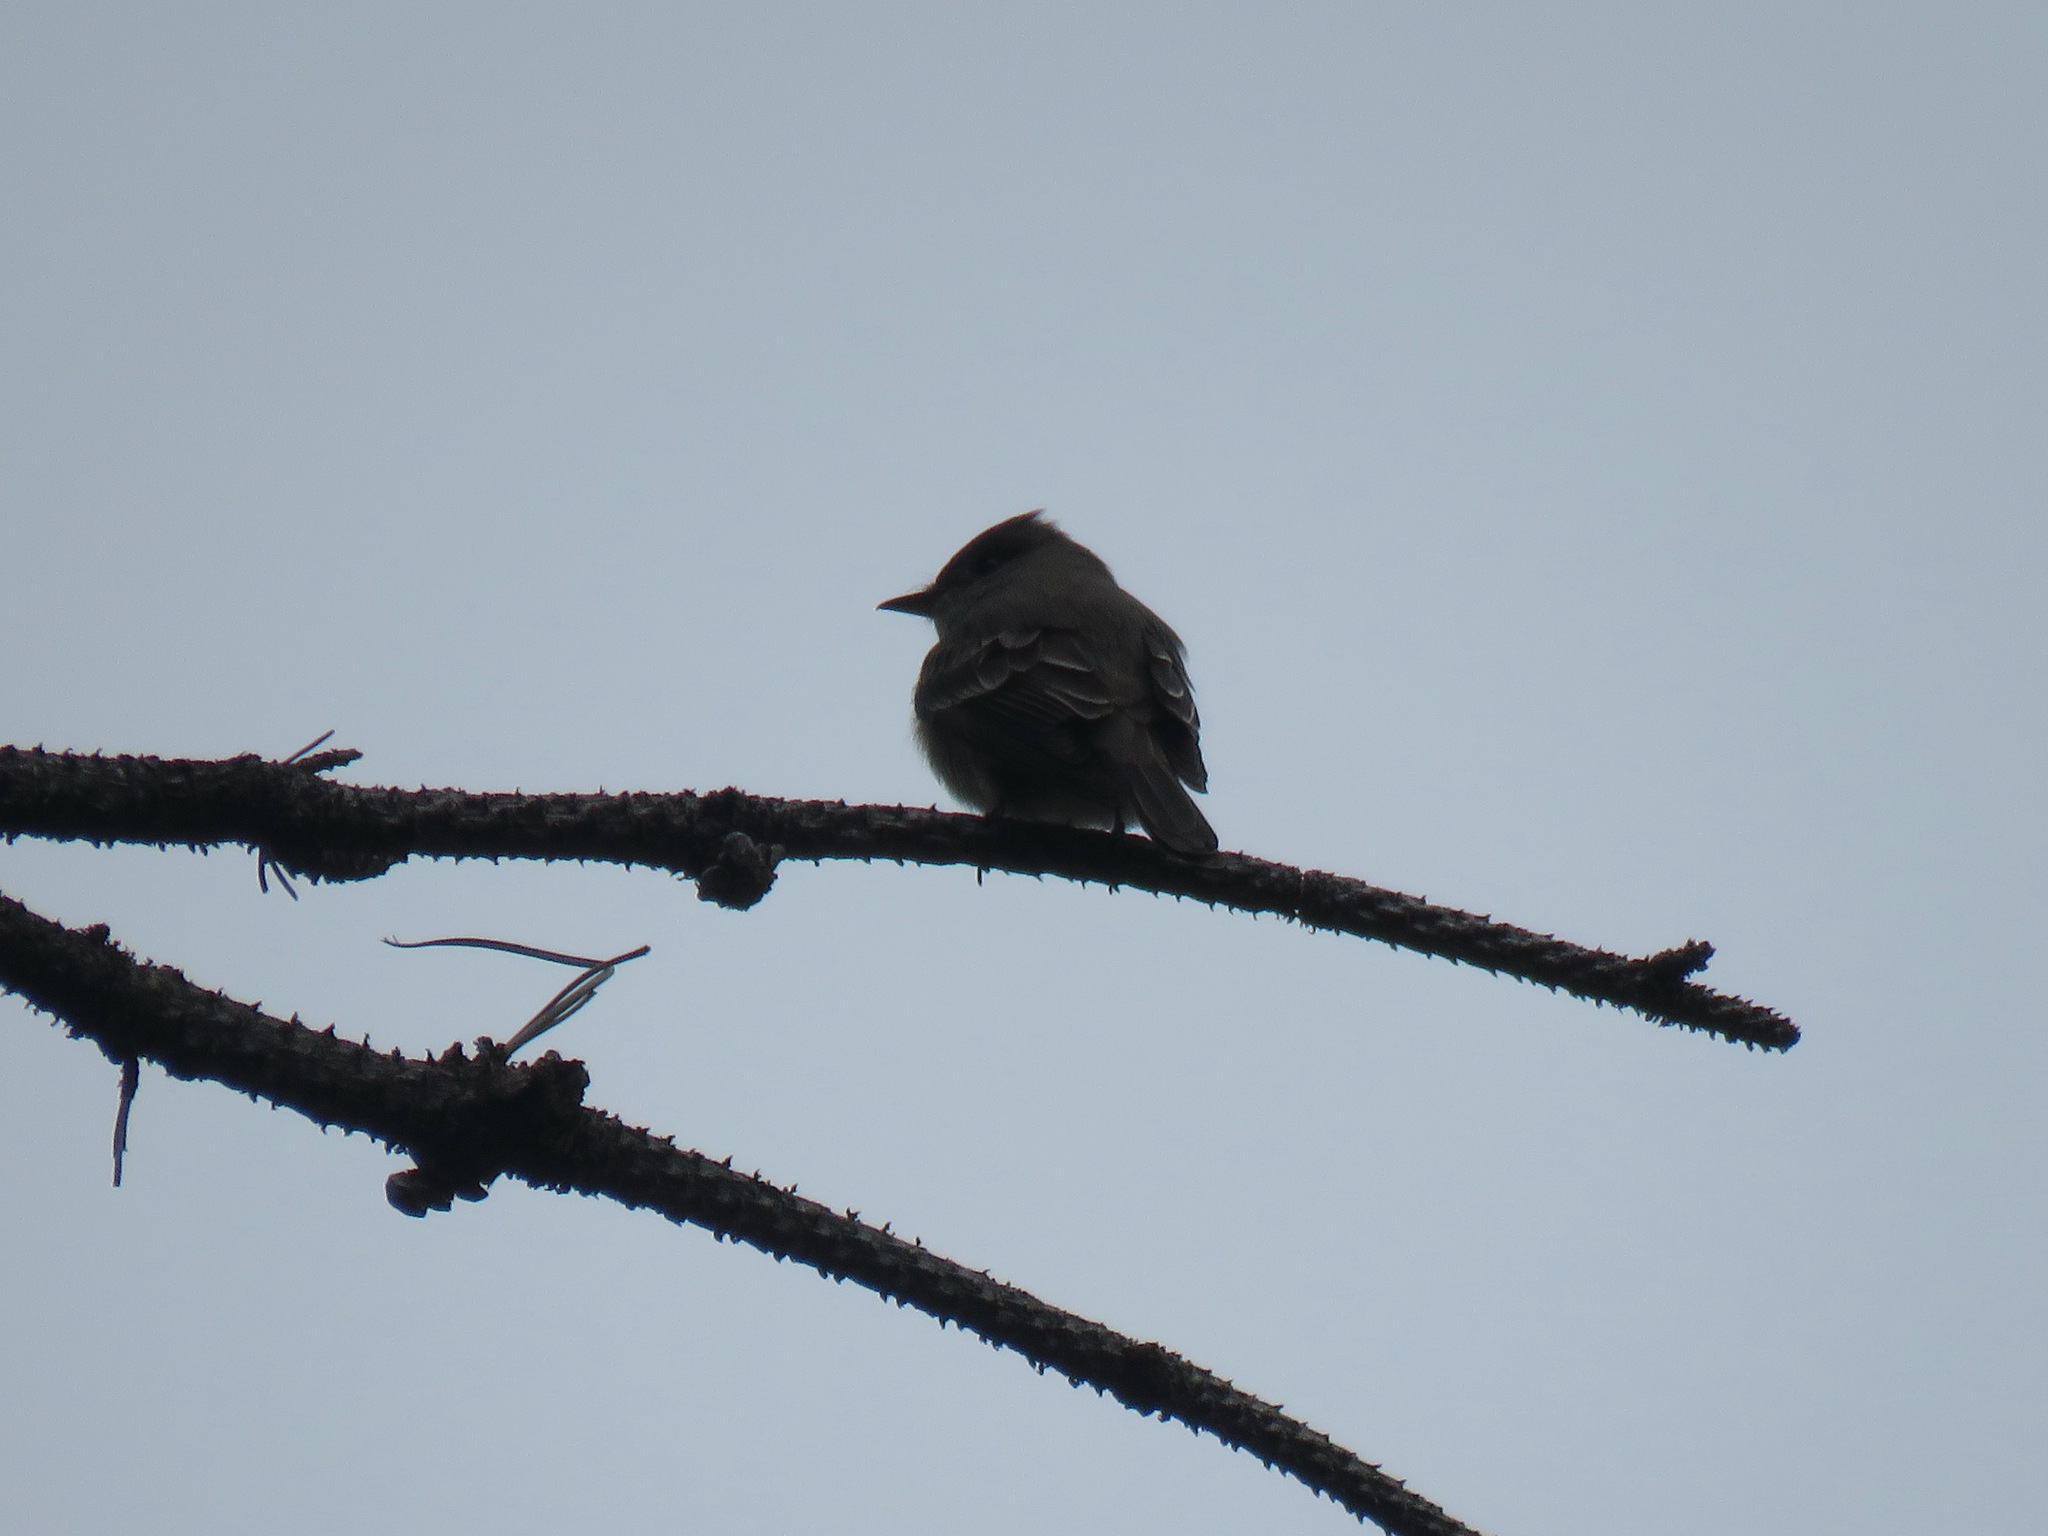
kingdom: Animalia
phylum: Chordata
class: Aves
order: Passeriformes
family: Tyrannidae
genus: Contopus
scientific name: Contopus sordidulus
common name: Western wood-pewee
